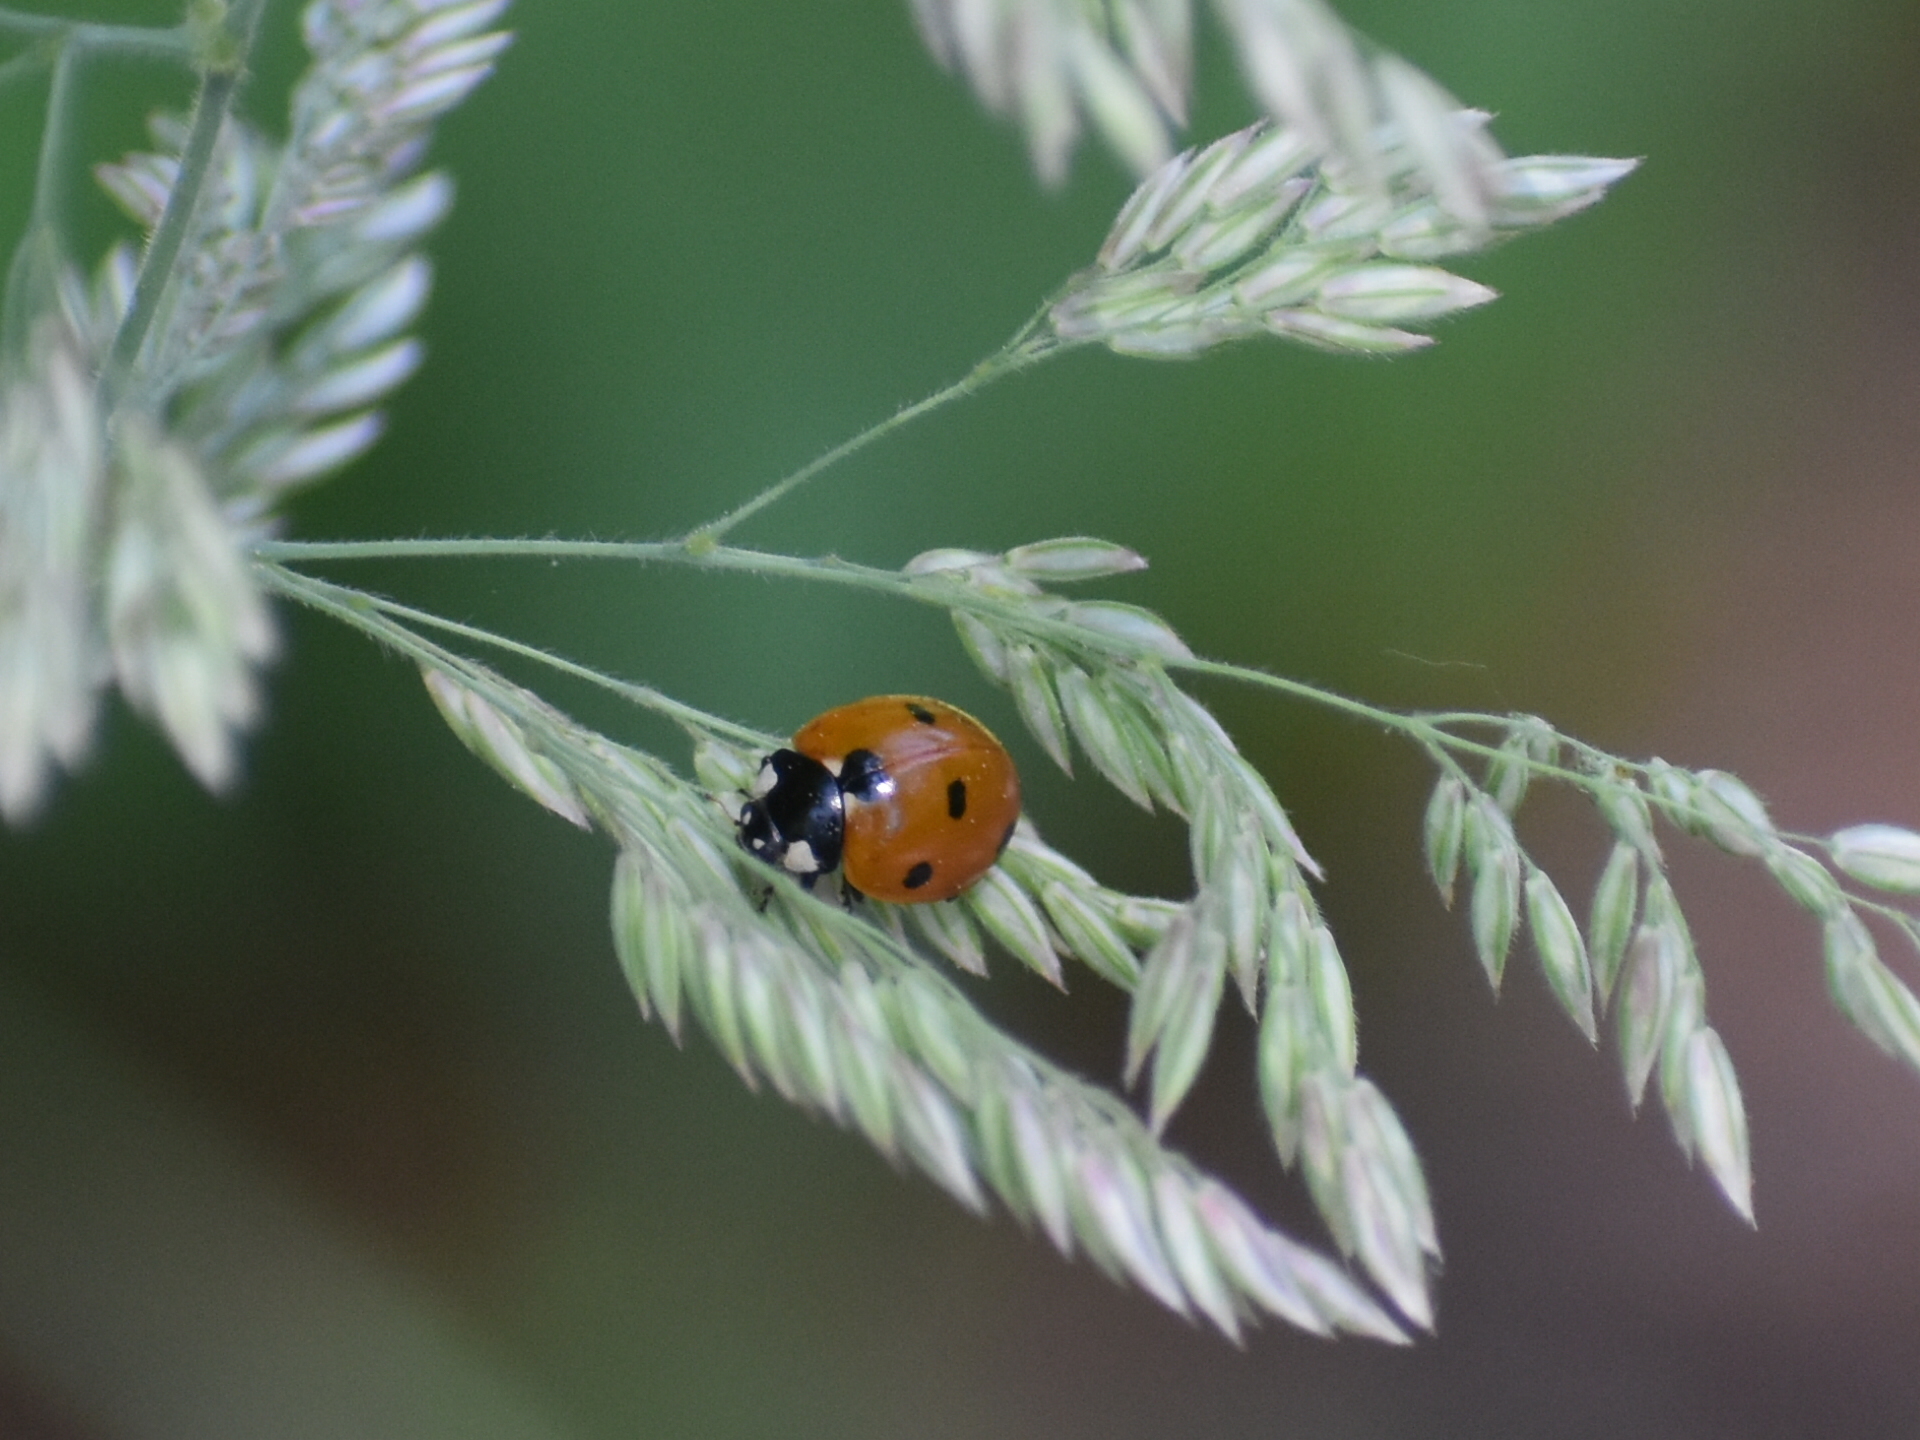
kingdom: Animalia
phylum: Arthropoda
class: Insecta
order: Coleoptera
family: Coccinellidae
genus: Coccinella
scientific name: Coccinella septempunctata
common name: Sevenspotted lady beetle
